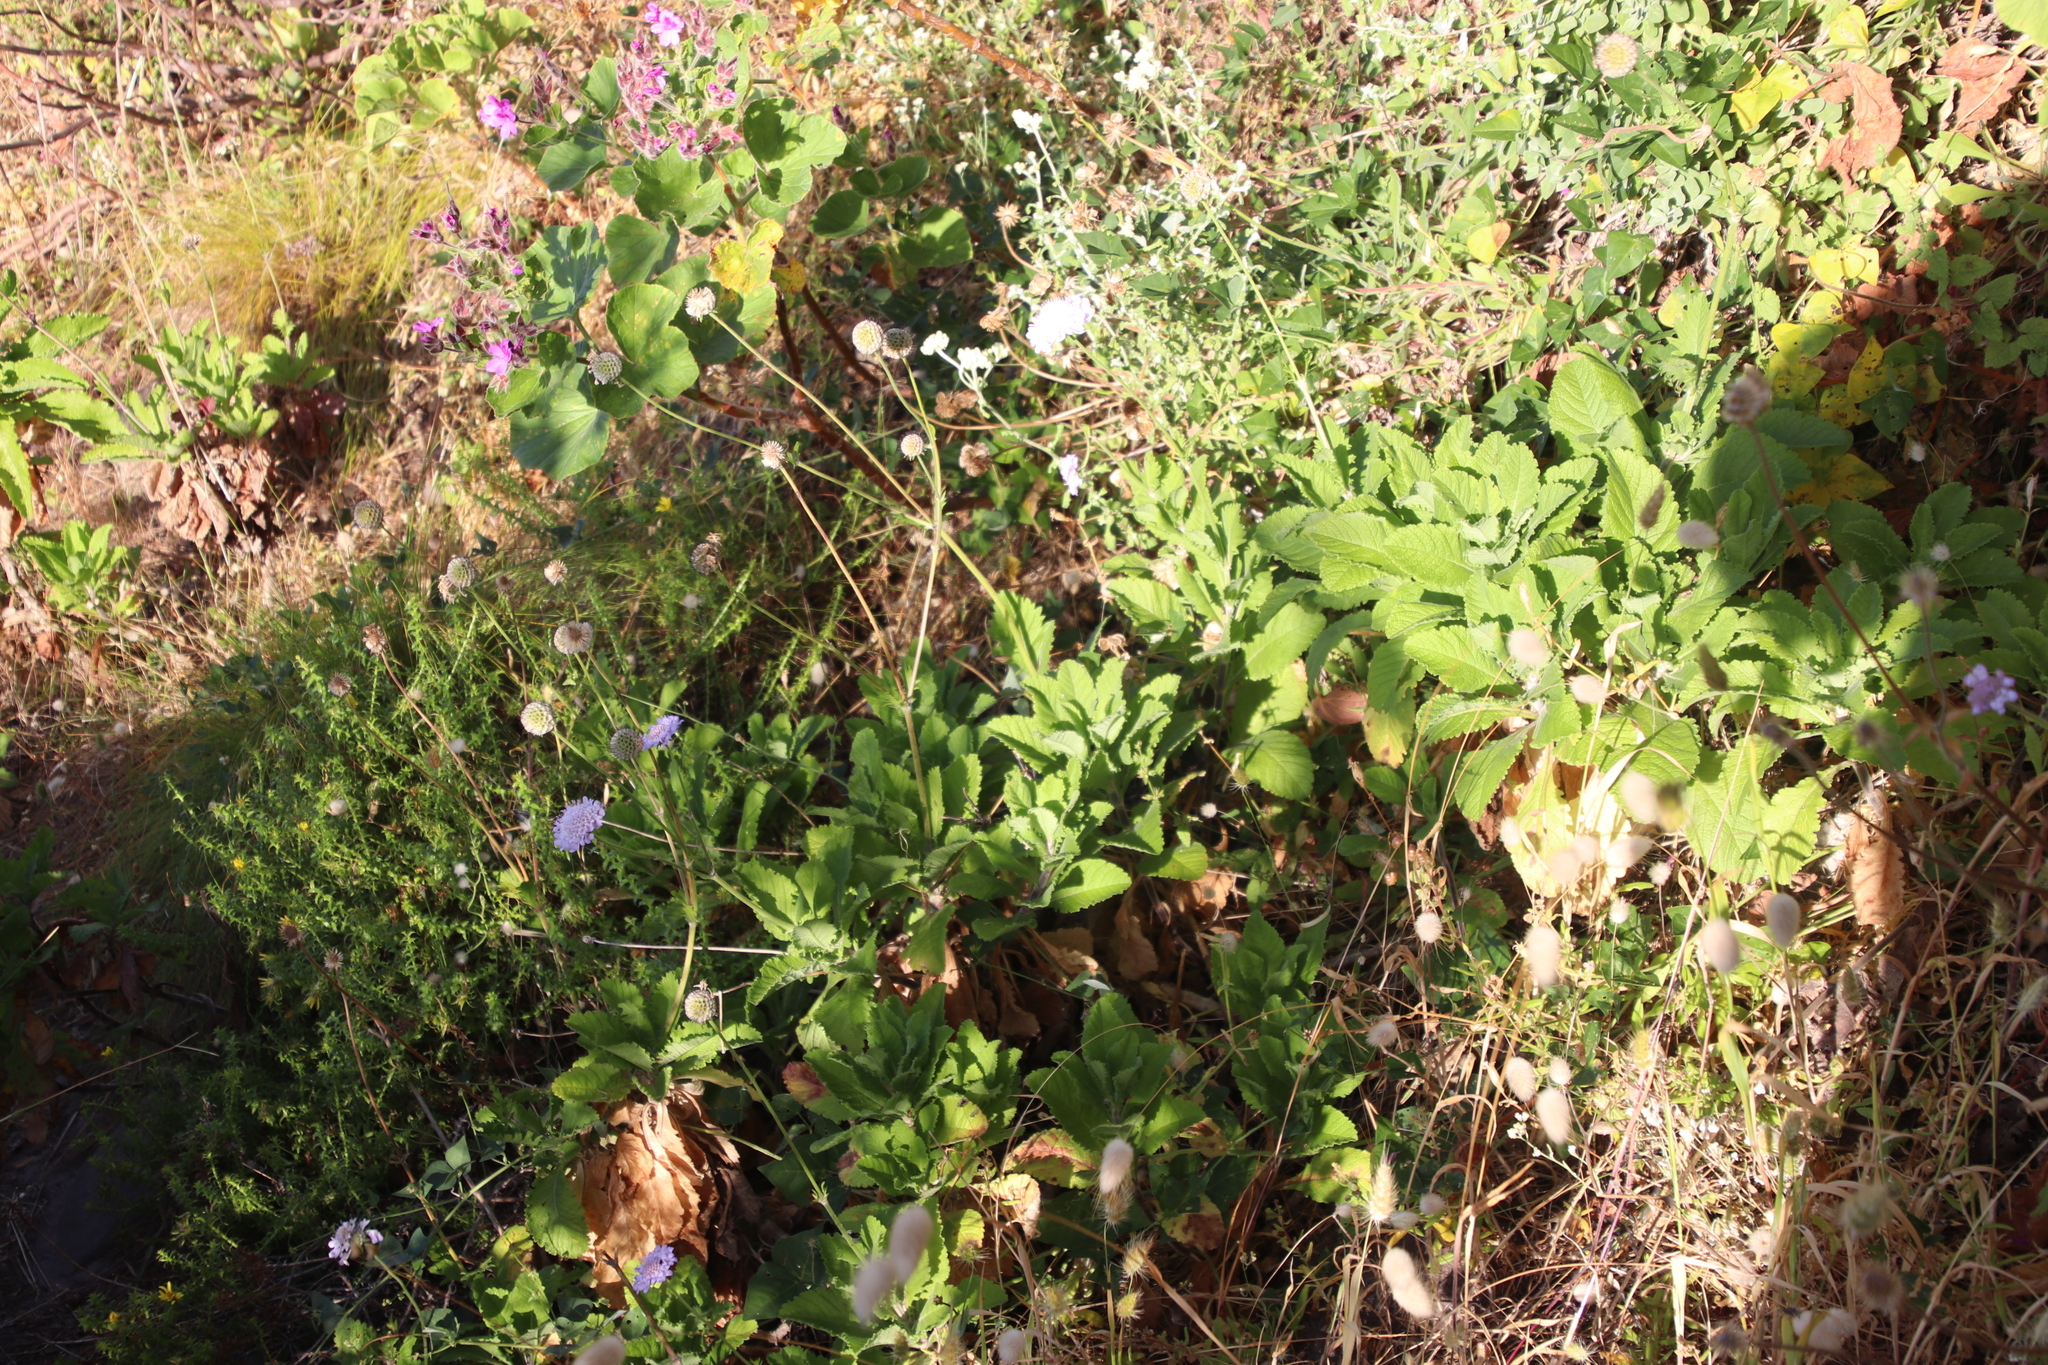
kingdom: Plantae
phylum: Tracheophyta
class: Magnoliopsida
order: Dipsacales
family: Caprifoliaceae
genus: Scabiosa
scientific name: Scabiosa africana
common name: Cape scabious
